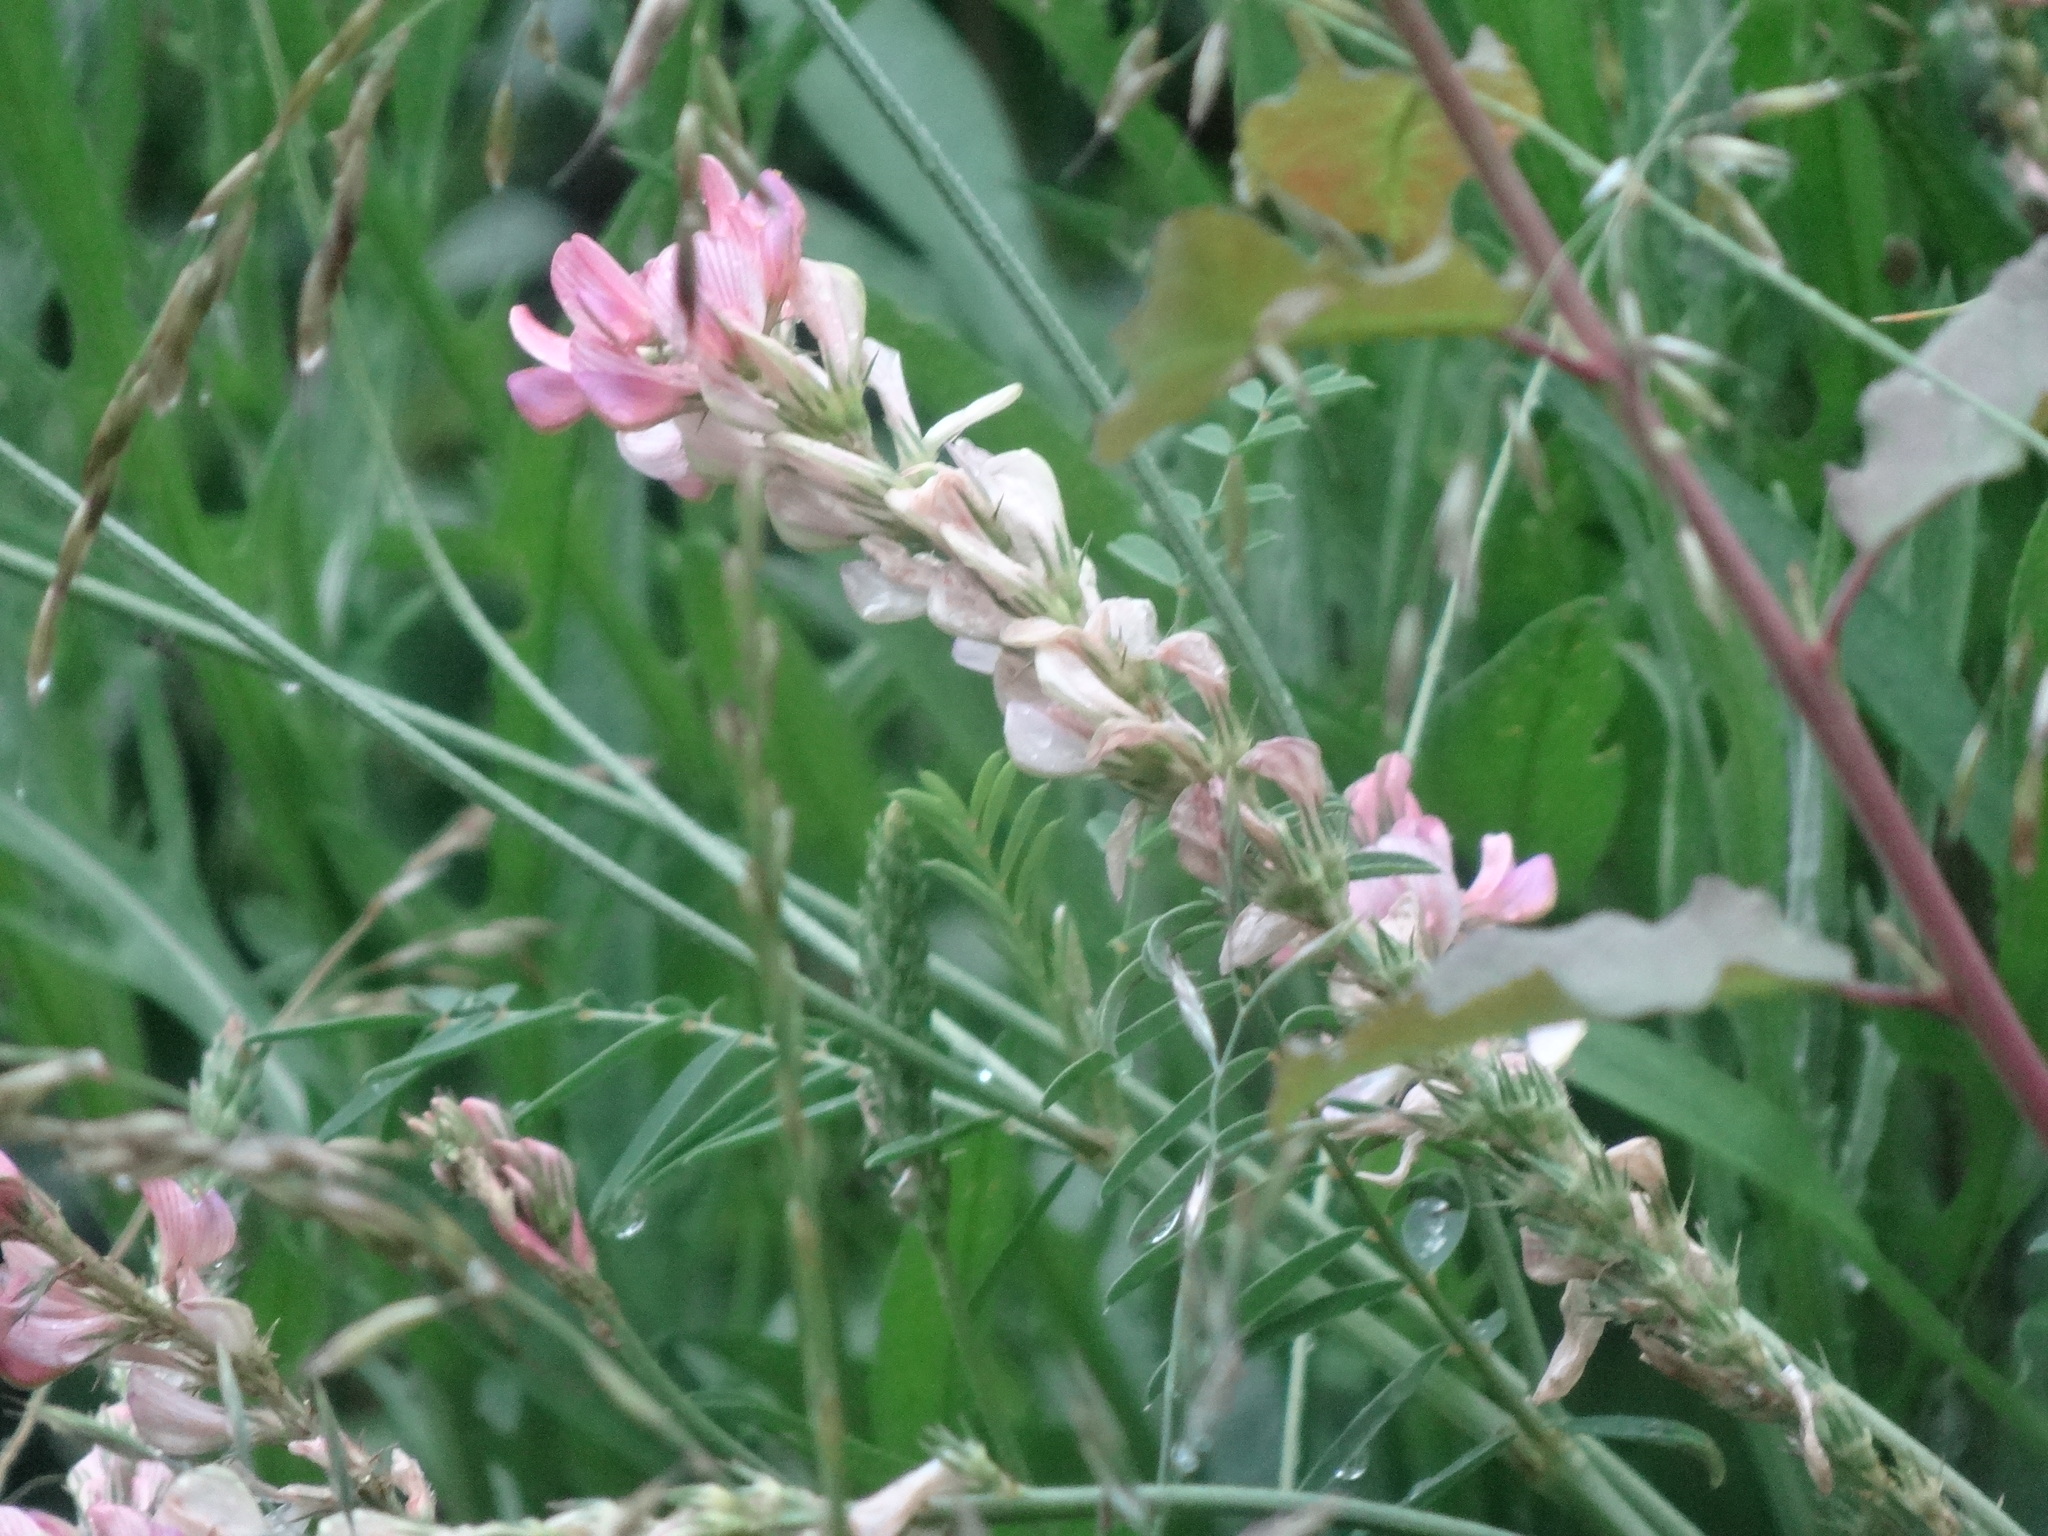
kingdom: Plantae
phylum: Tracheophyta
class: Magnoliopsida
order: Fabales
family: Fabaceae
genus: Onobrychis
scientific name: Onobrychis viciifolia
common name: Sainfoin
